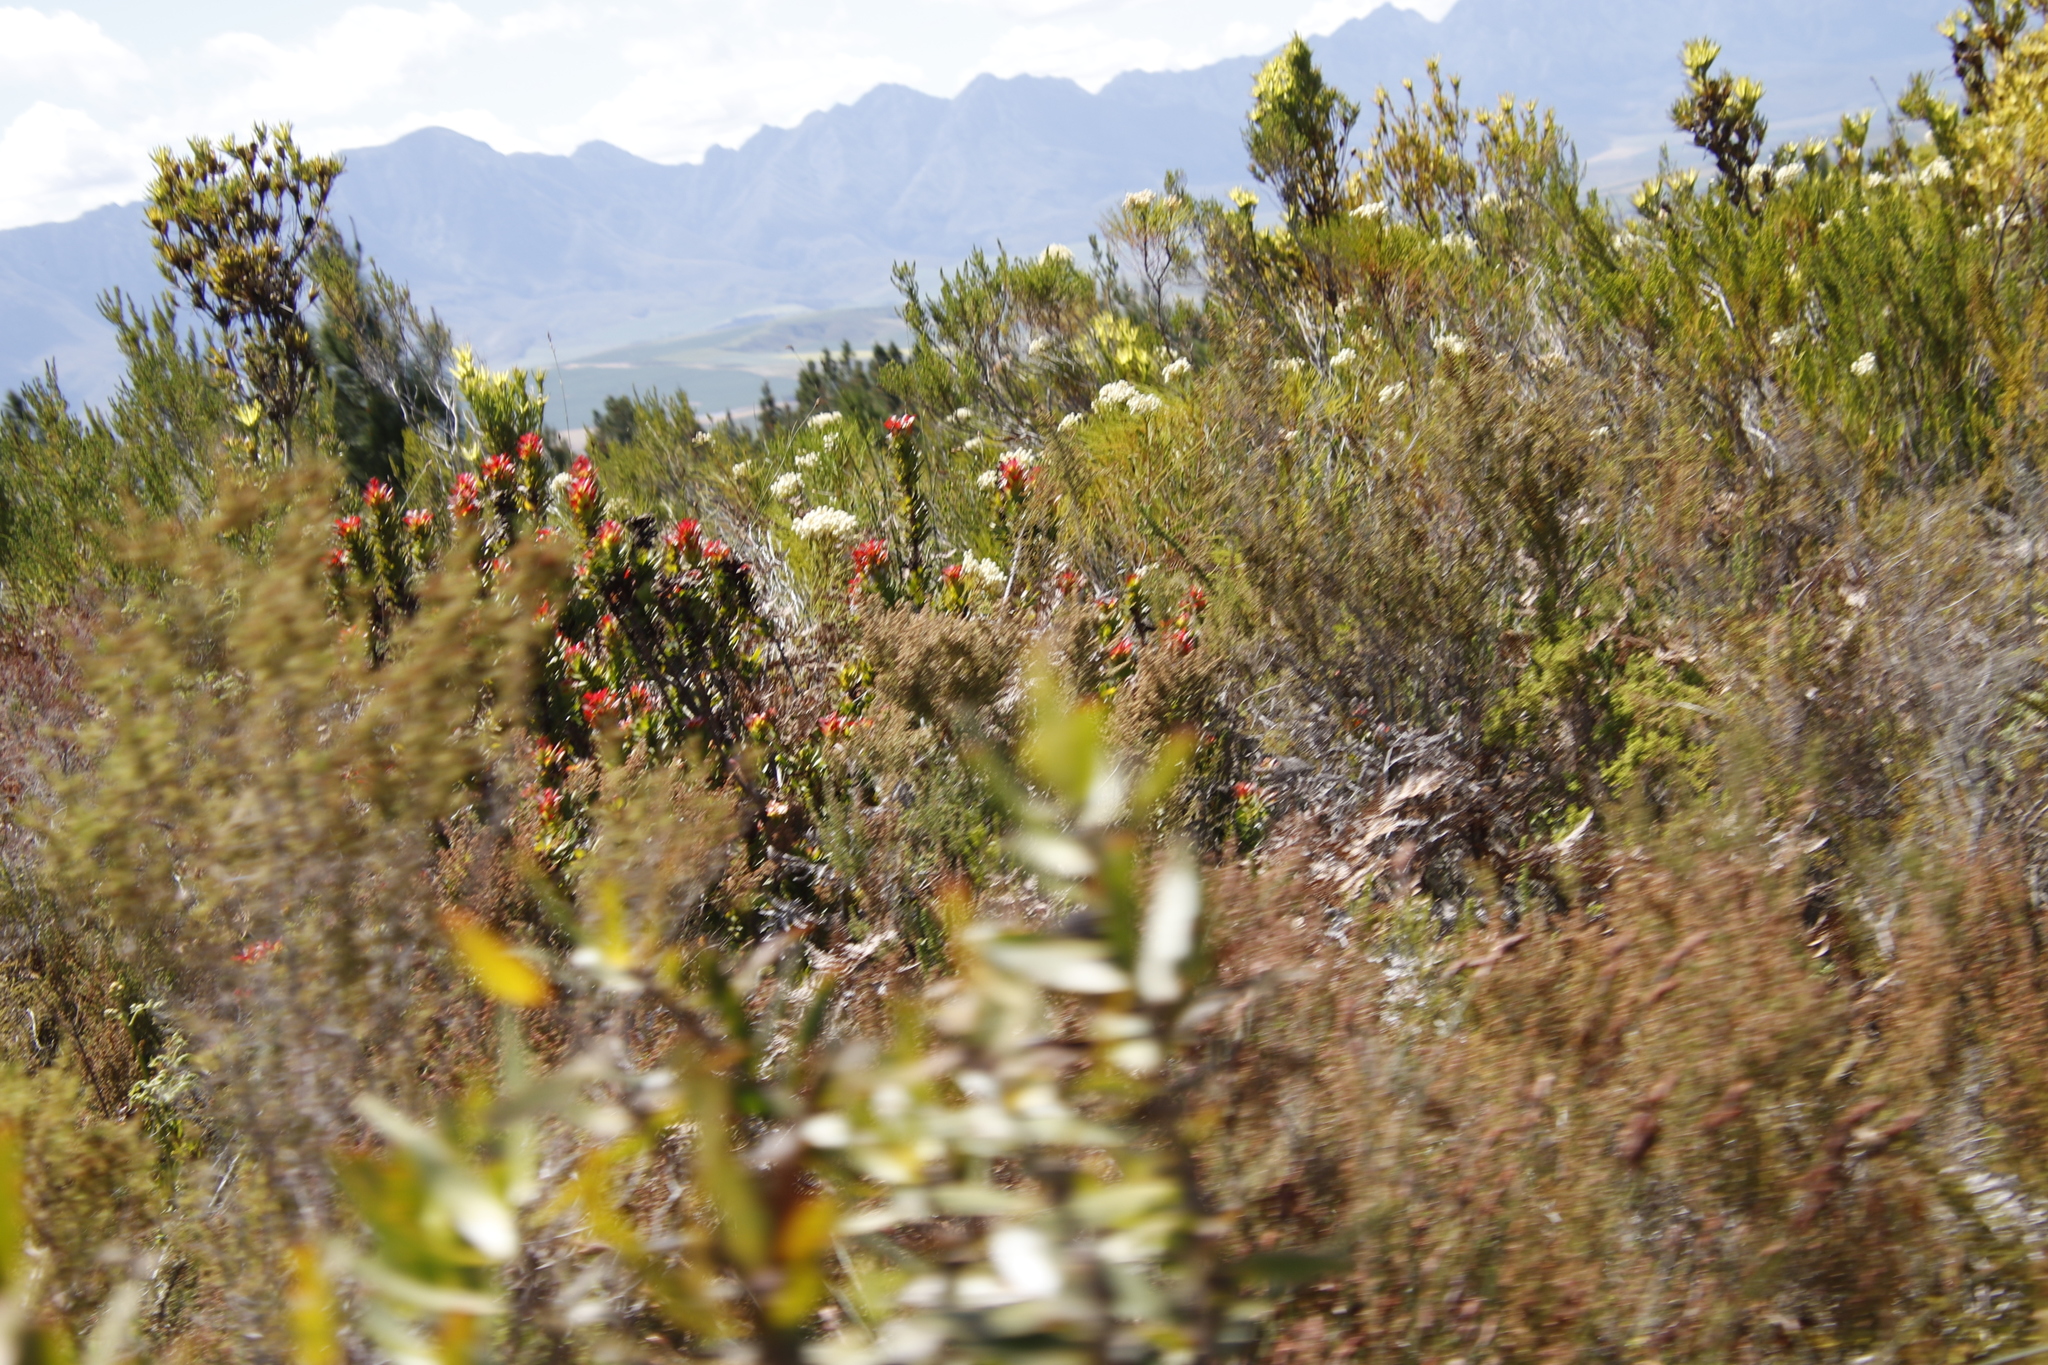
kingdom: Plantae
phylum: Tracheophyta
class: Magnoliopsida
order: Proteales
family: Proteaceae
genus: Mimetes
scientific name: Mimetes cucullatus
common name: Common pagoda
